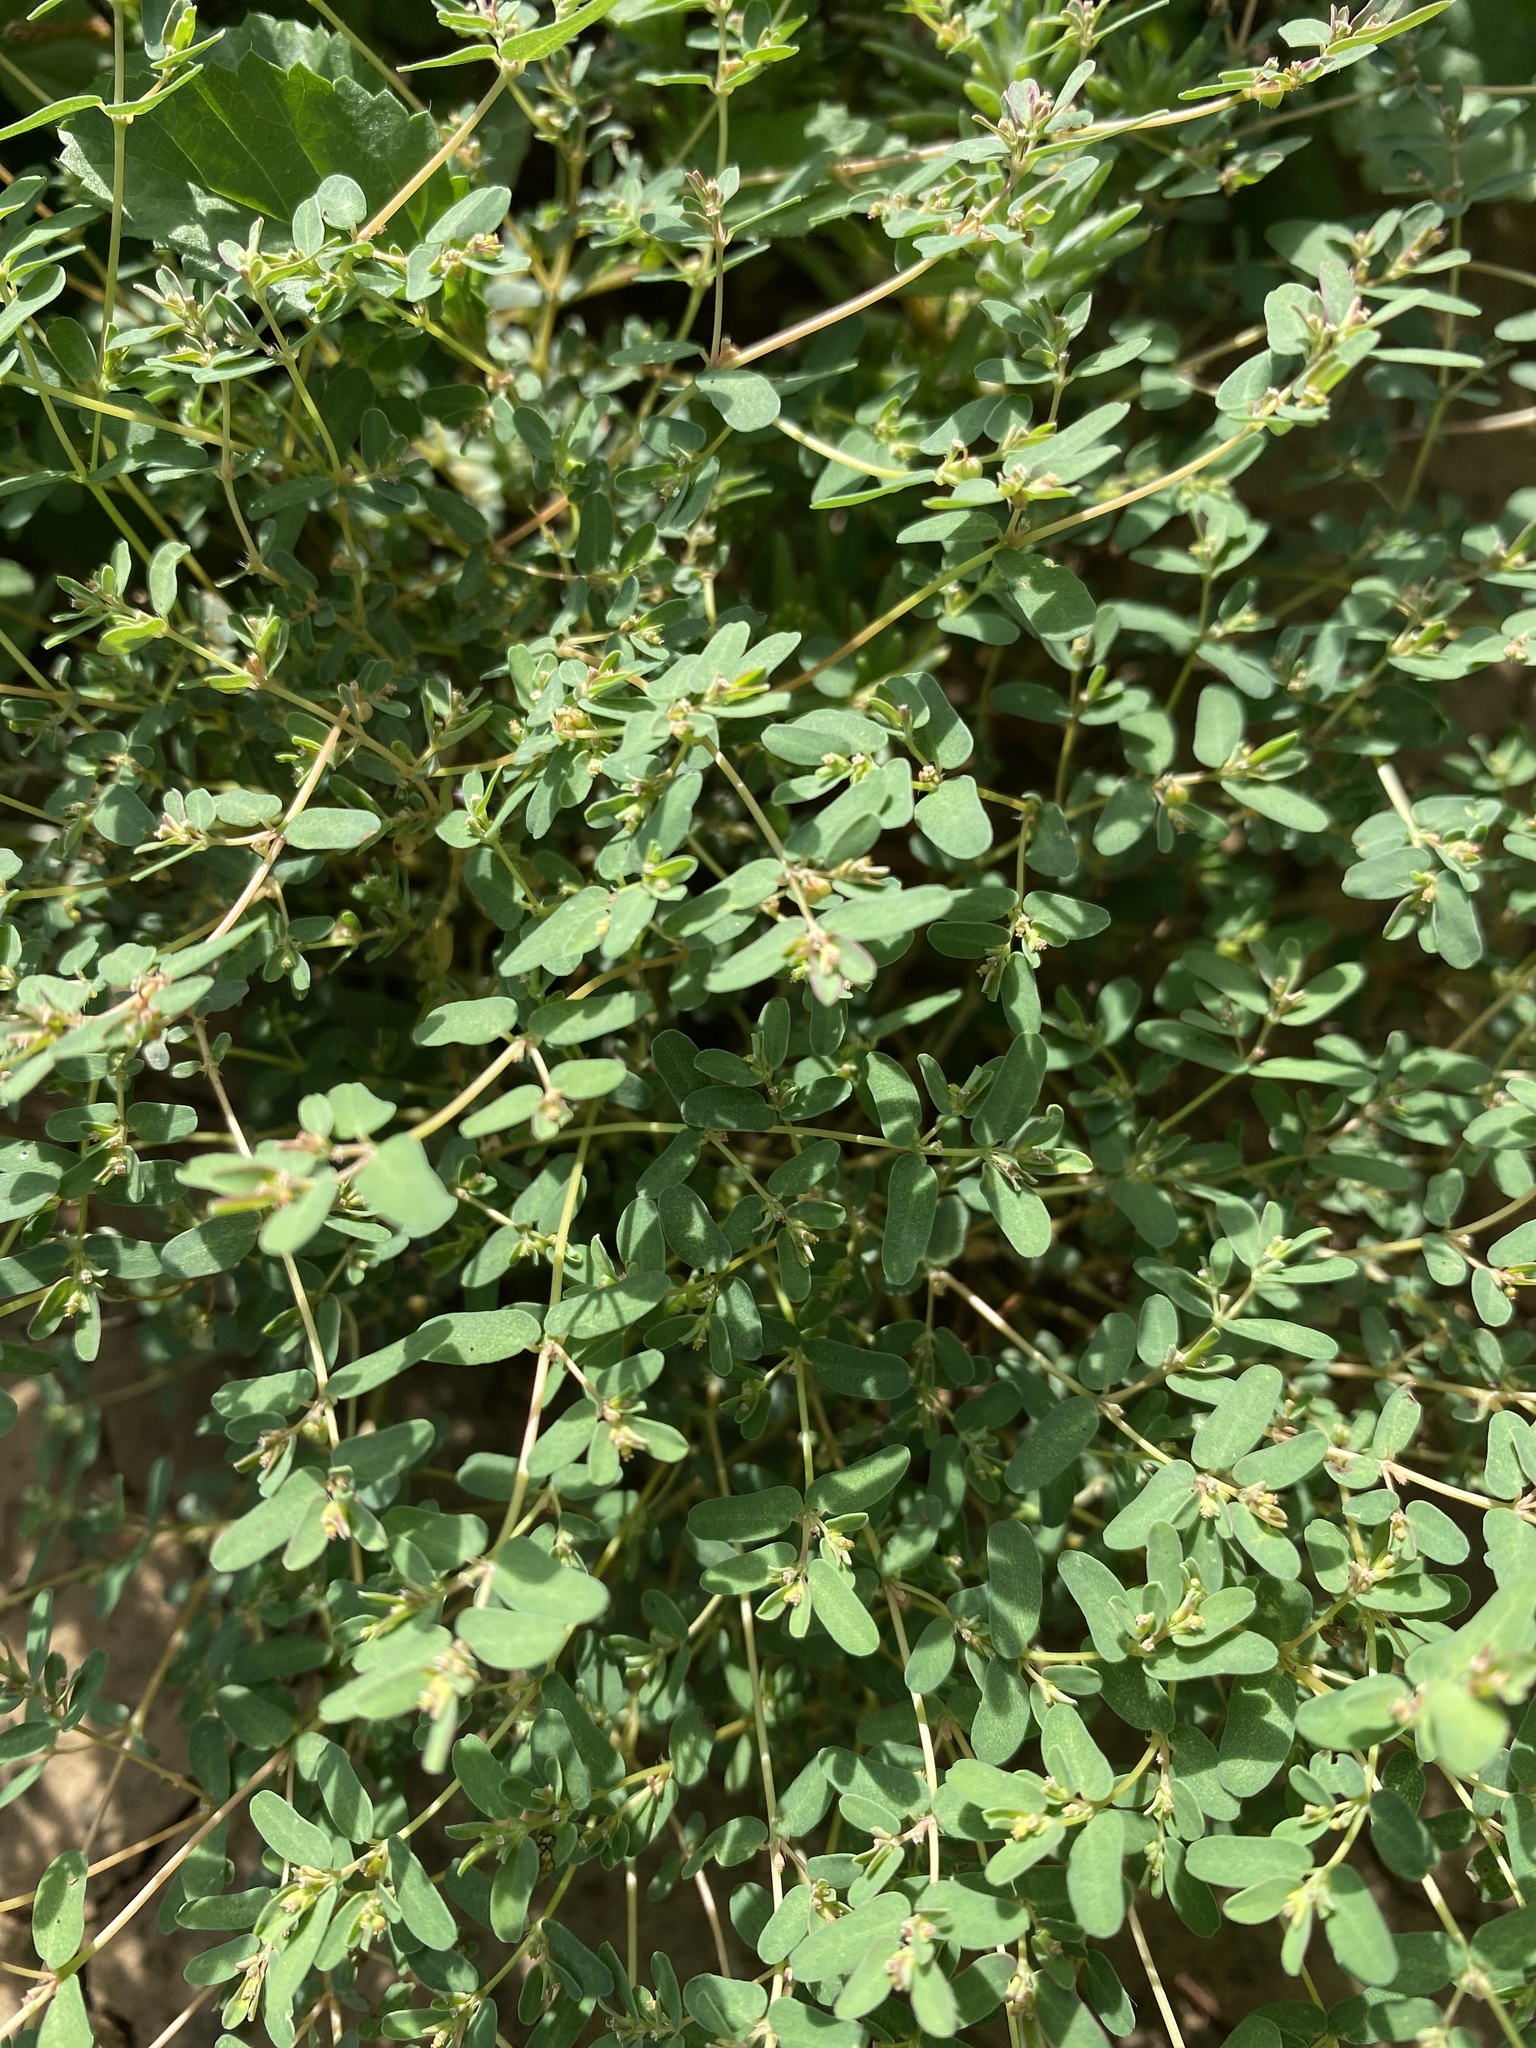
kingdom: Plantae
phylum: Tracheophyta
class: Magnoliopsida
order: Malpighiales
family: Euphorbiaceae
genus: Euphorbia
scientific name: Euphorbia glyptosperma
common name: Corrugate-seeded spurge
